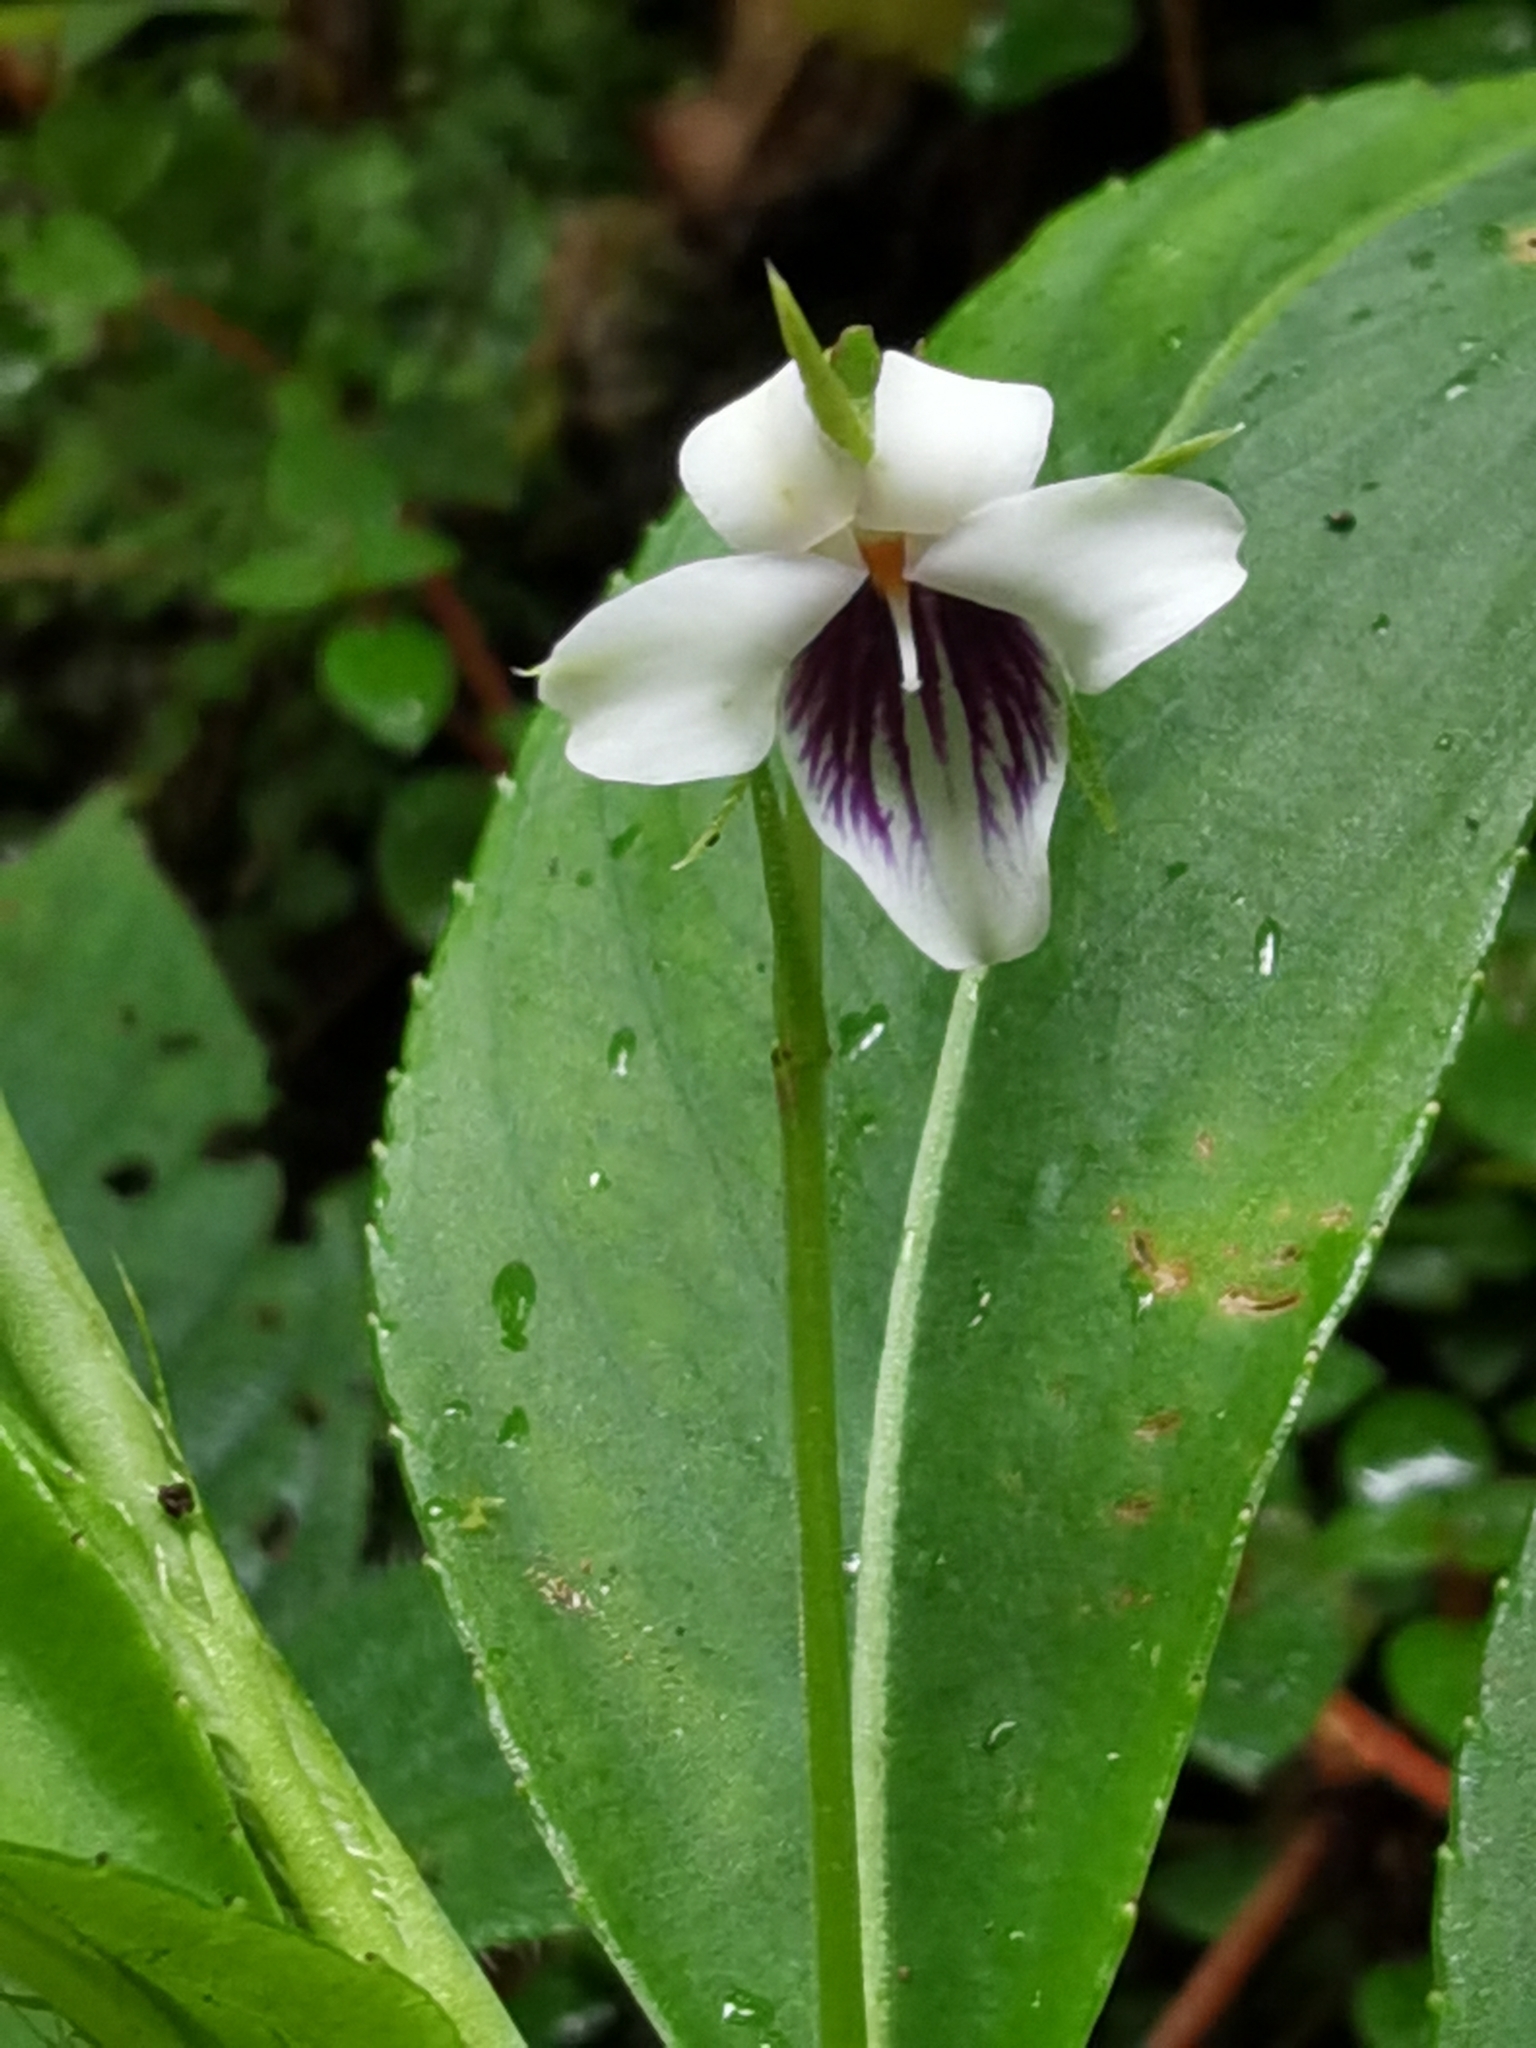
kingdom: Plantae
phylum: Tracheophyta
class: Magnoliopsida
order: Malpighiales
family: Violaceae
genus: Viola
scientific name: Viola stipularis
